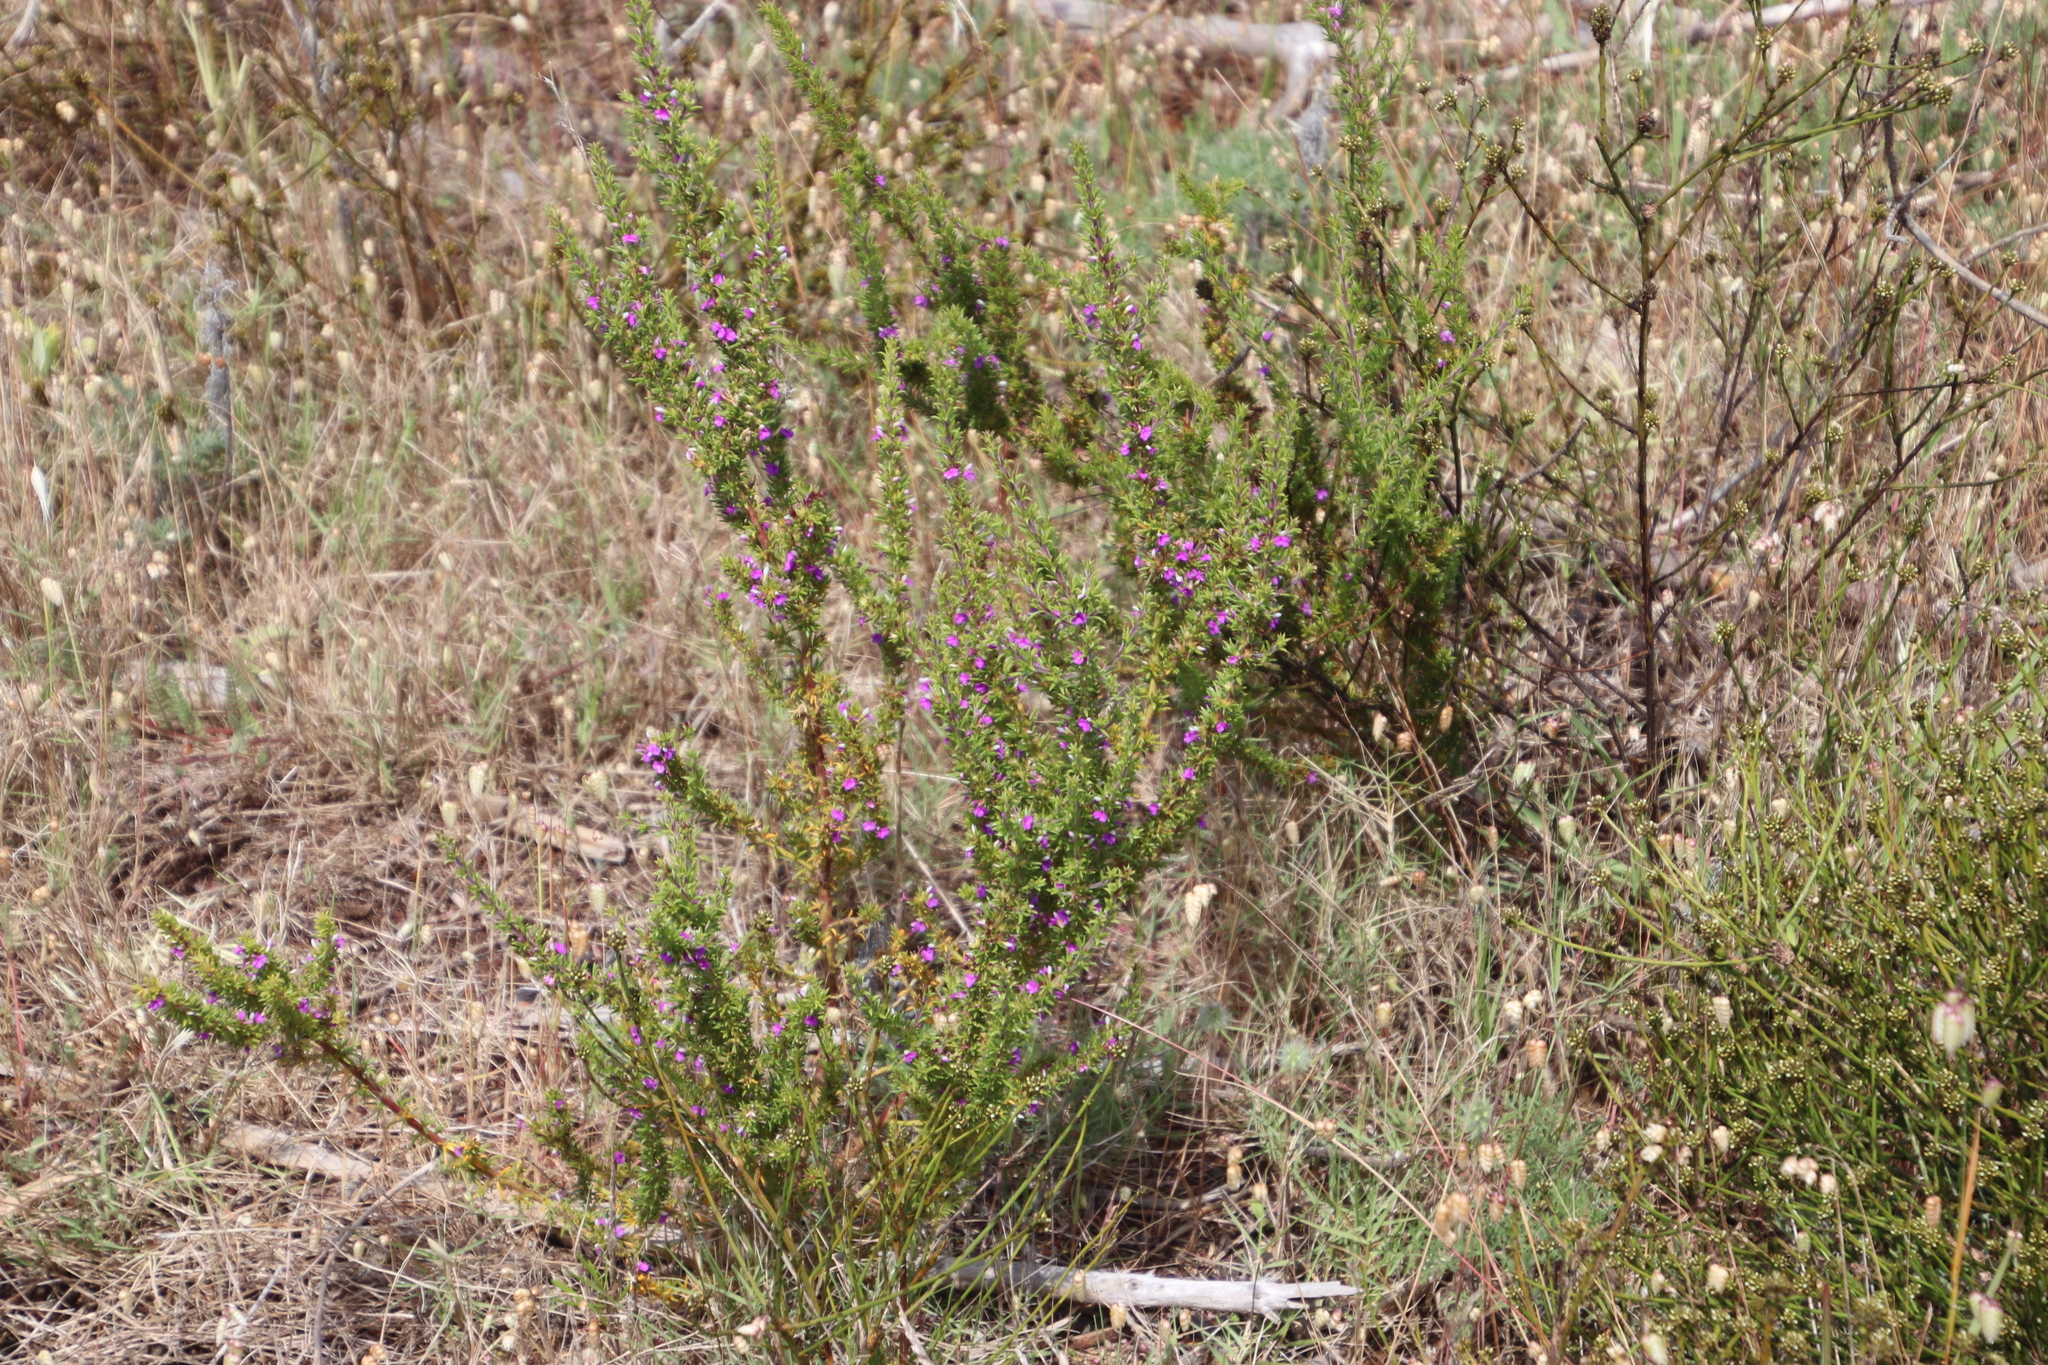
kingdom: Plantae
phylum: Tracheophyta
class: Magnoliopsida
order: Fabales
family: Polygalaceae
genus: Muraltia
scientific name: Muraltia heisteria
